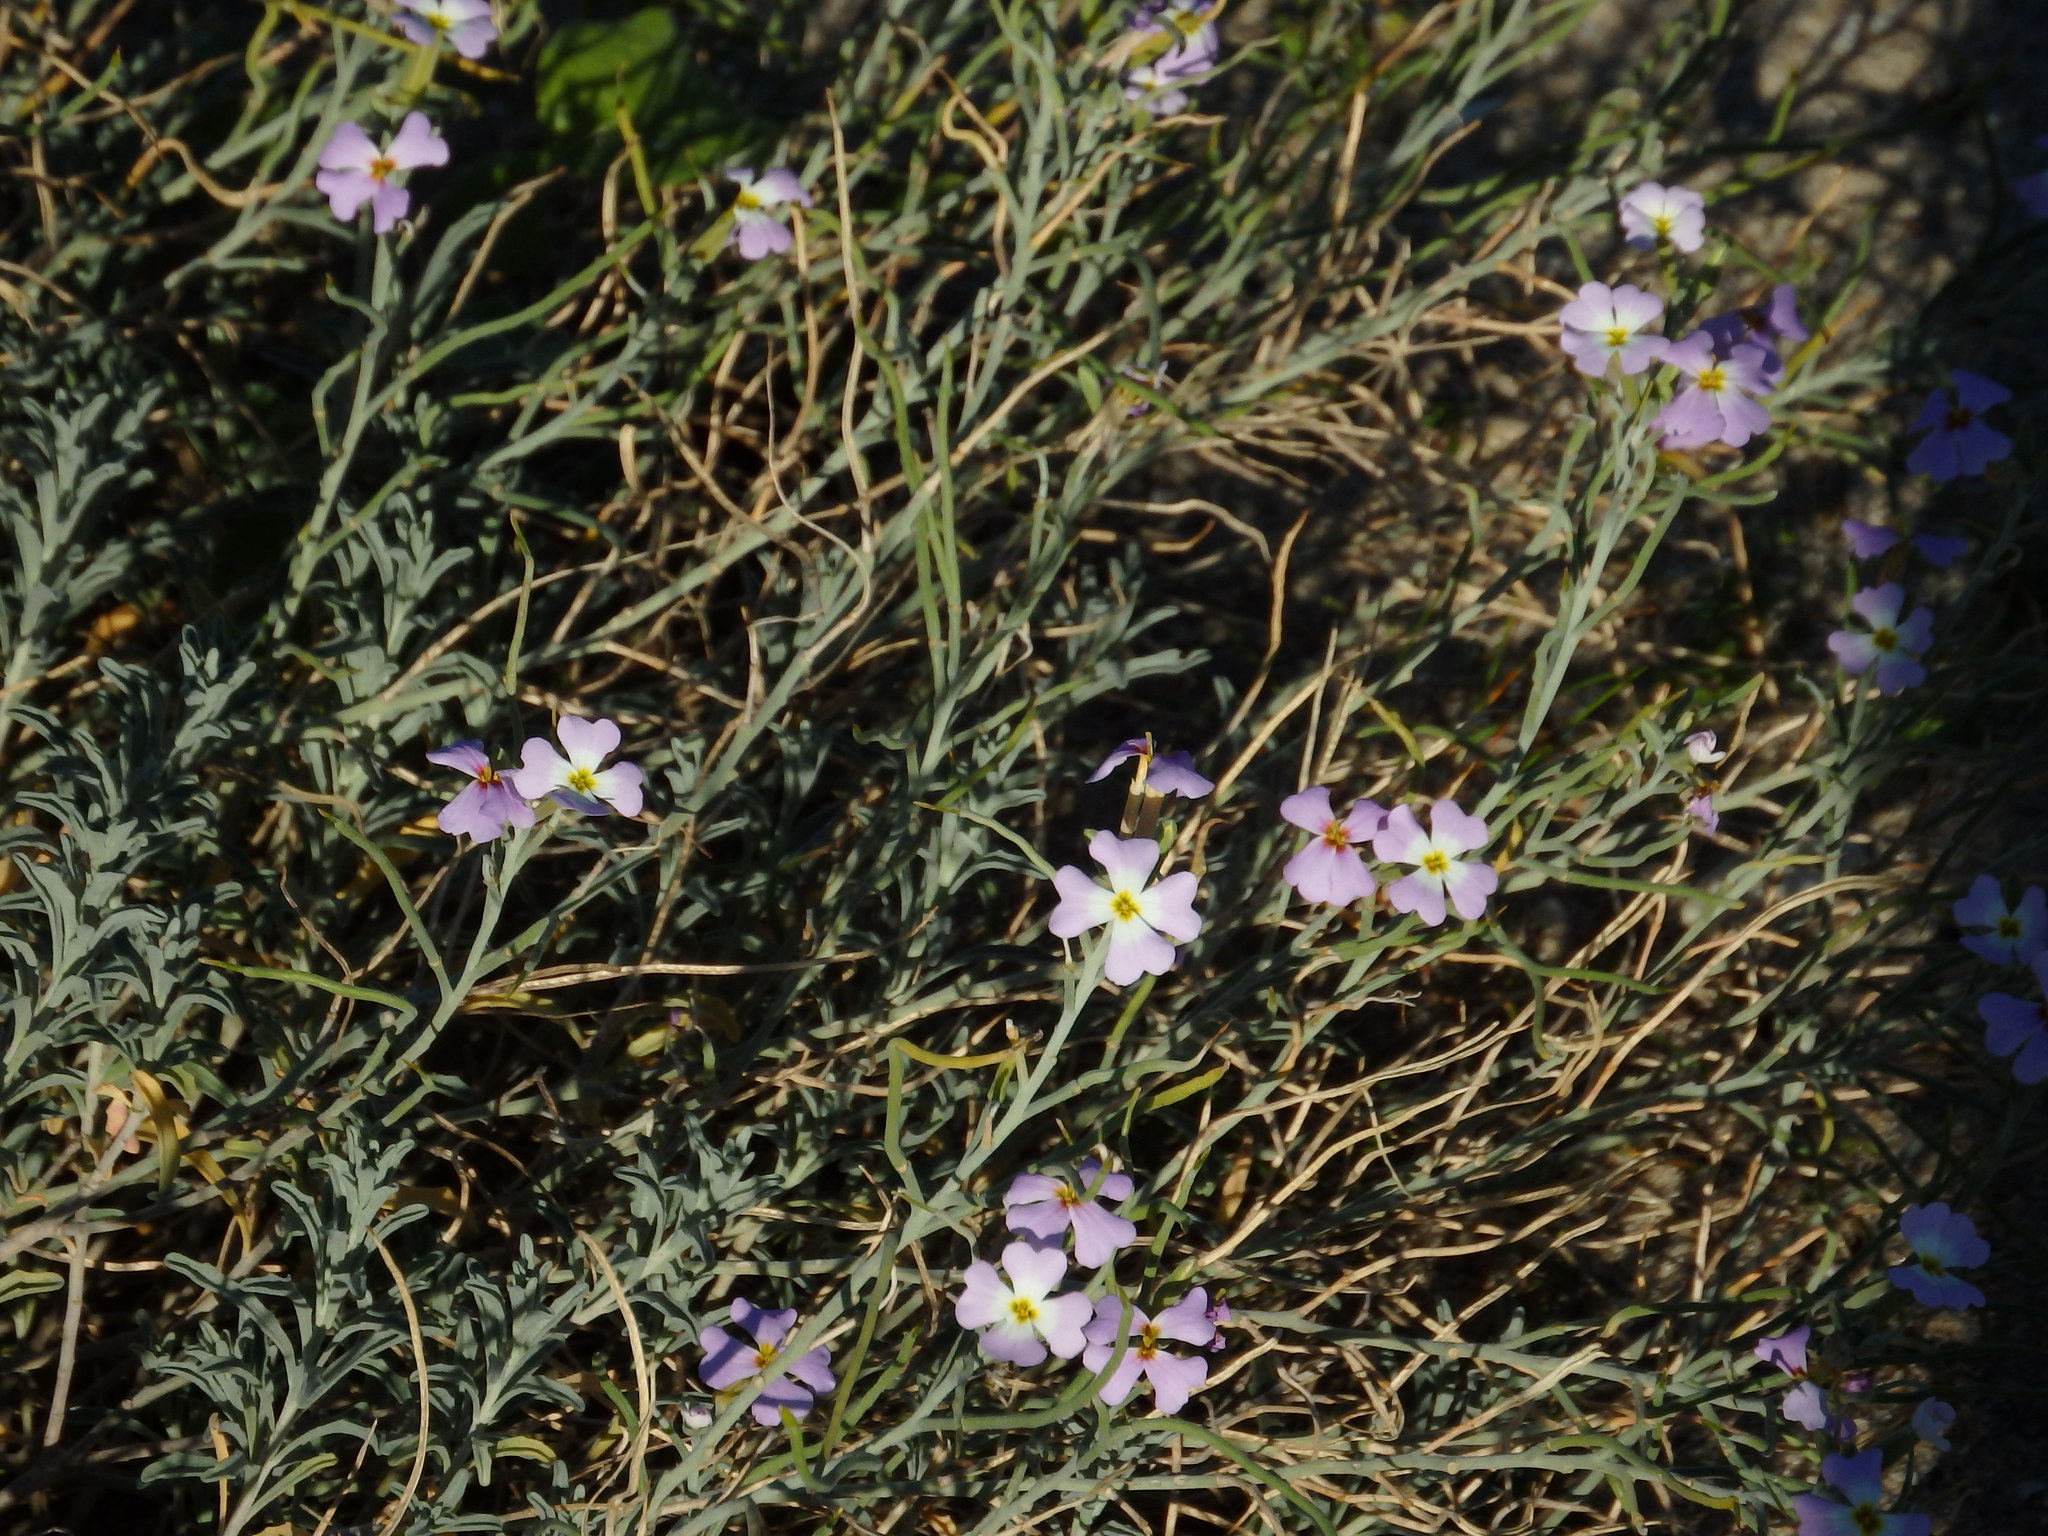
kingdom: Plantae
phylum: Tracheophyta
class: Magnoliopsida
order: Brassicales
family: Brassicaceae
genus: Marcuskochia
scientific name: Marcuskochia littorea
